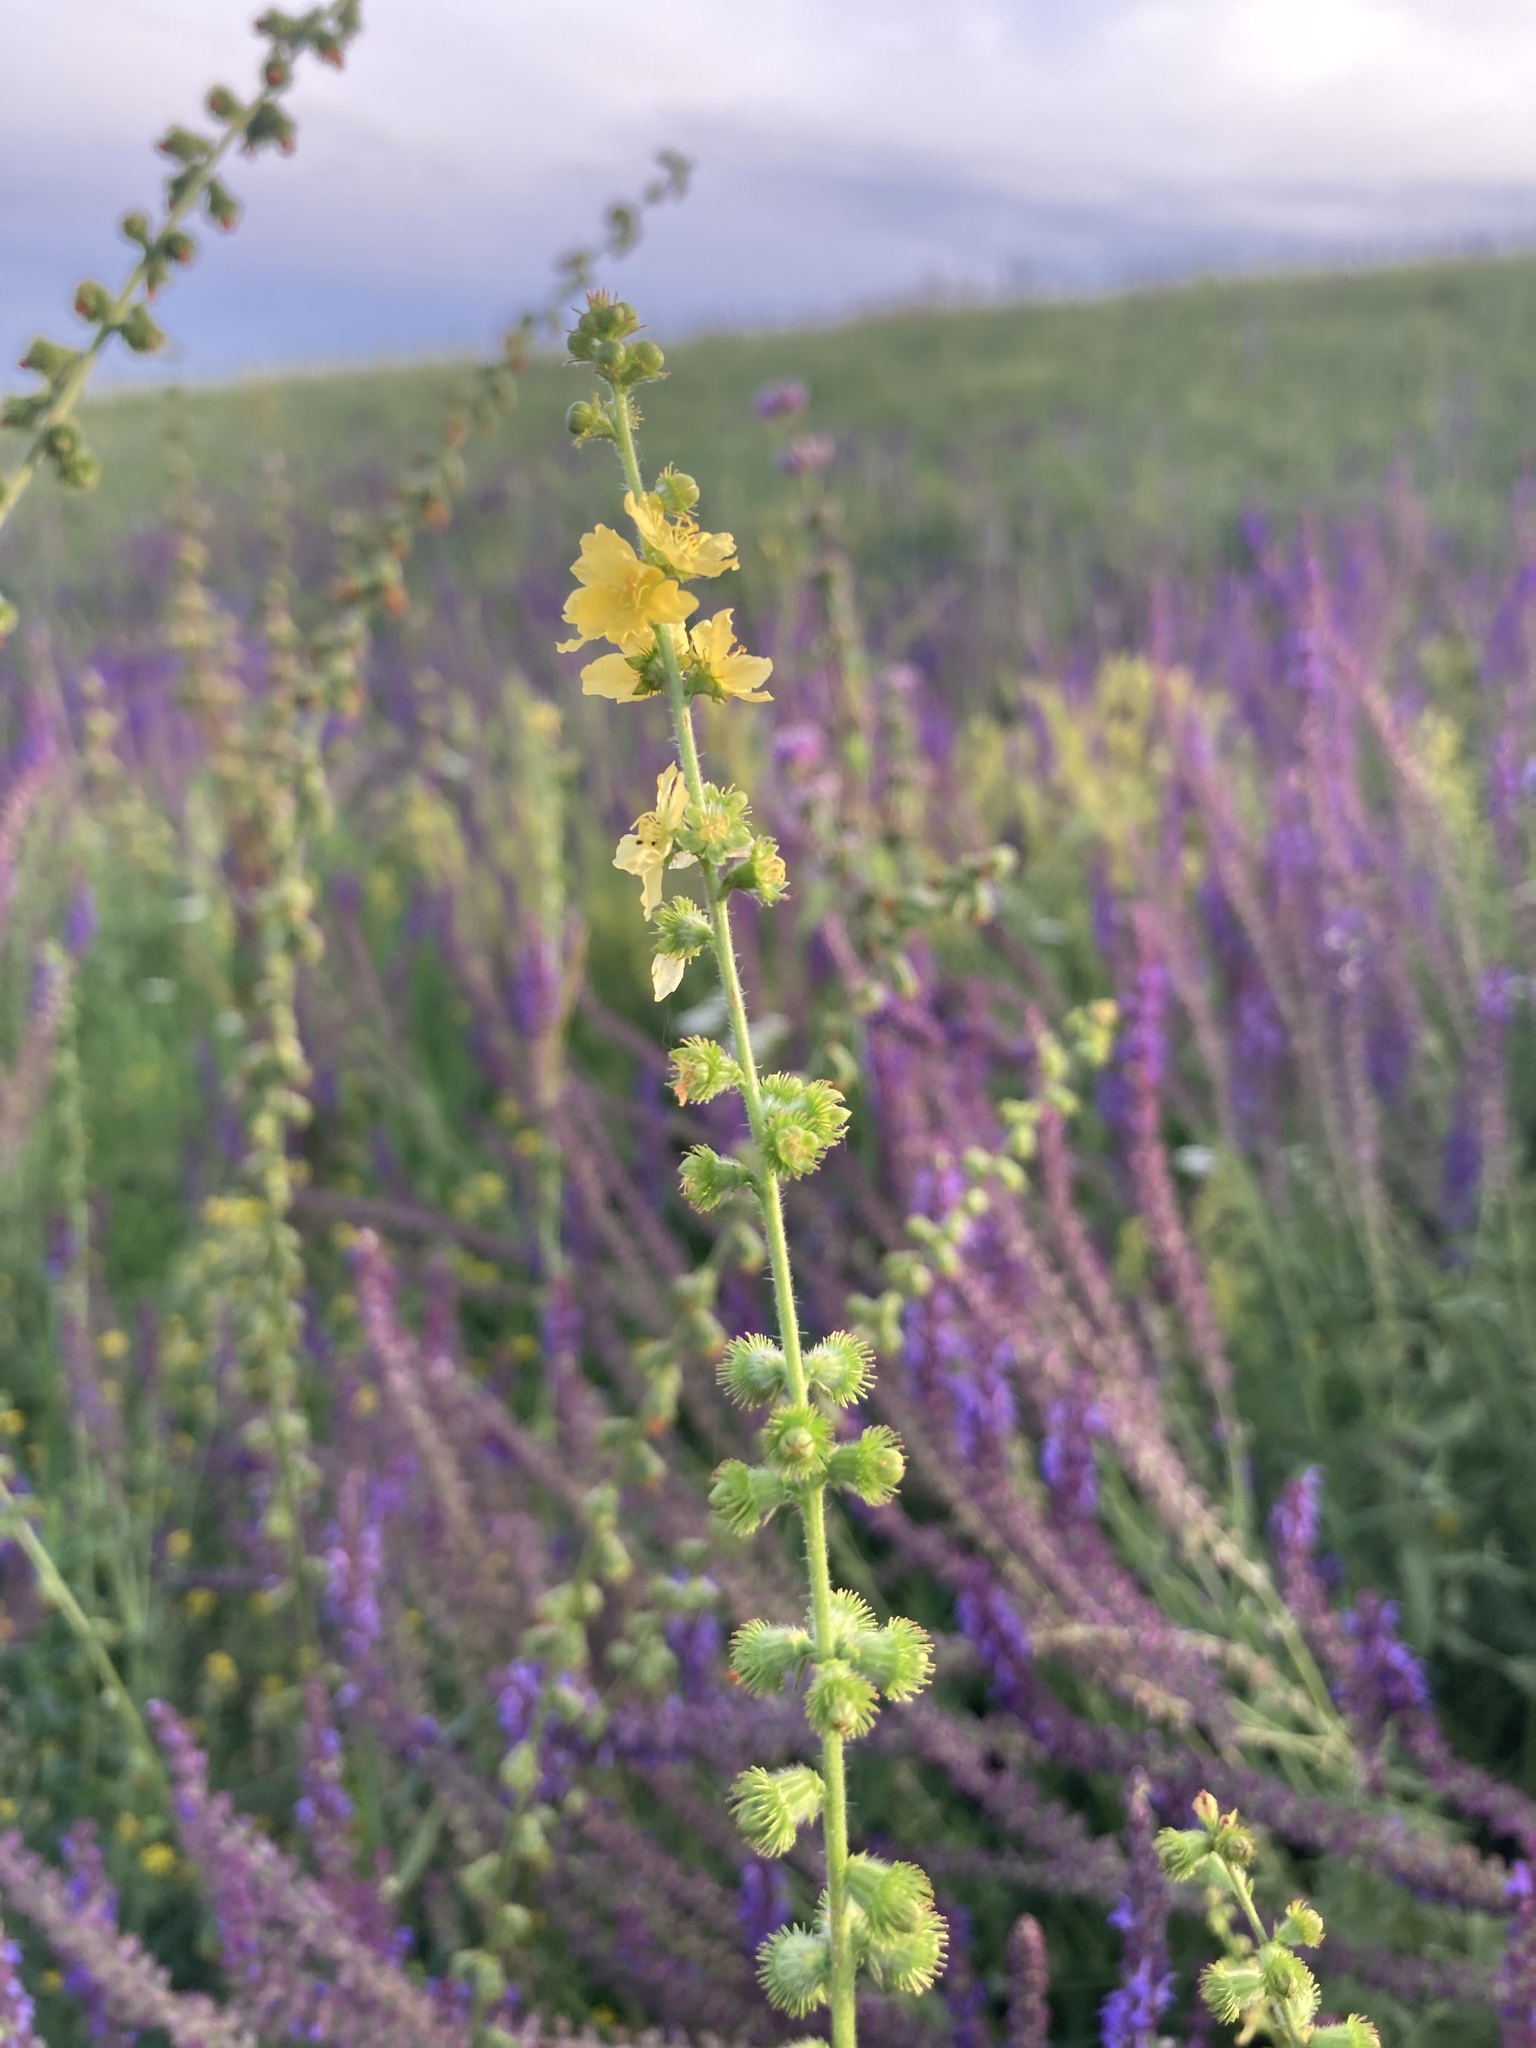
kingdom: Plantae
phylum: Tracheophyta
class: Magnoliopsida
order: Rosales
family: Rosaceae
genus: Agrimonia
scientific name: Agrimonia eupatoria
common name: Agrimony
